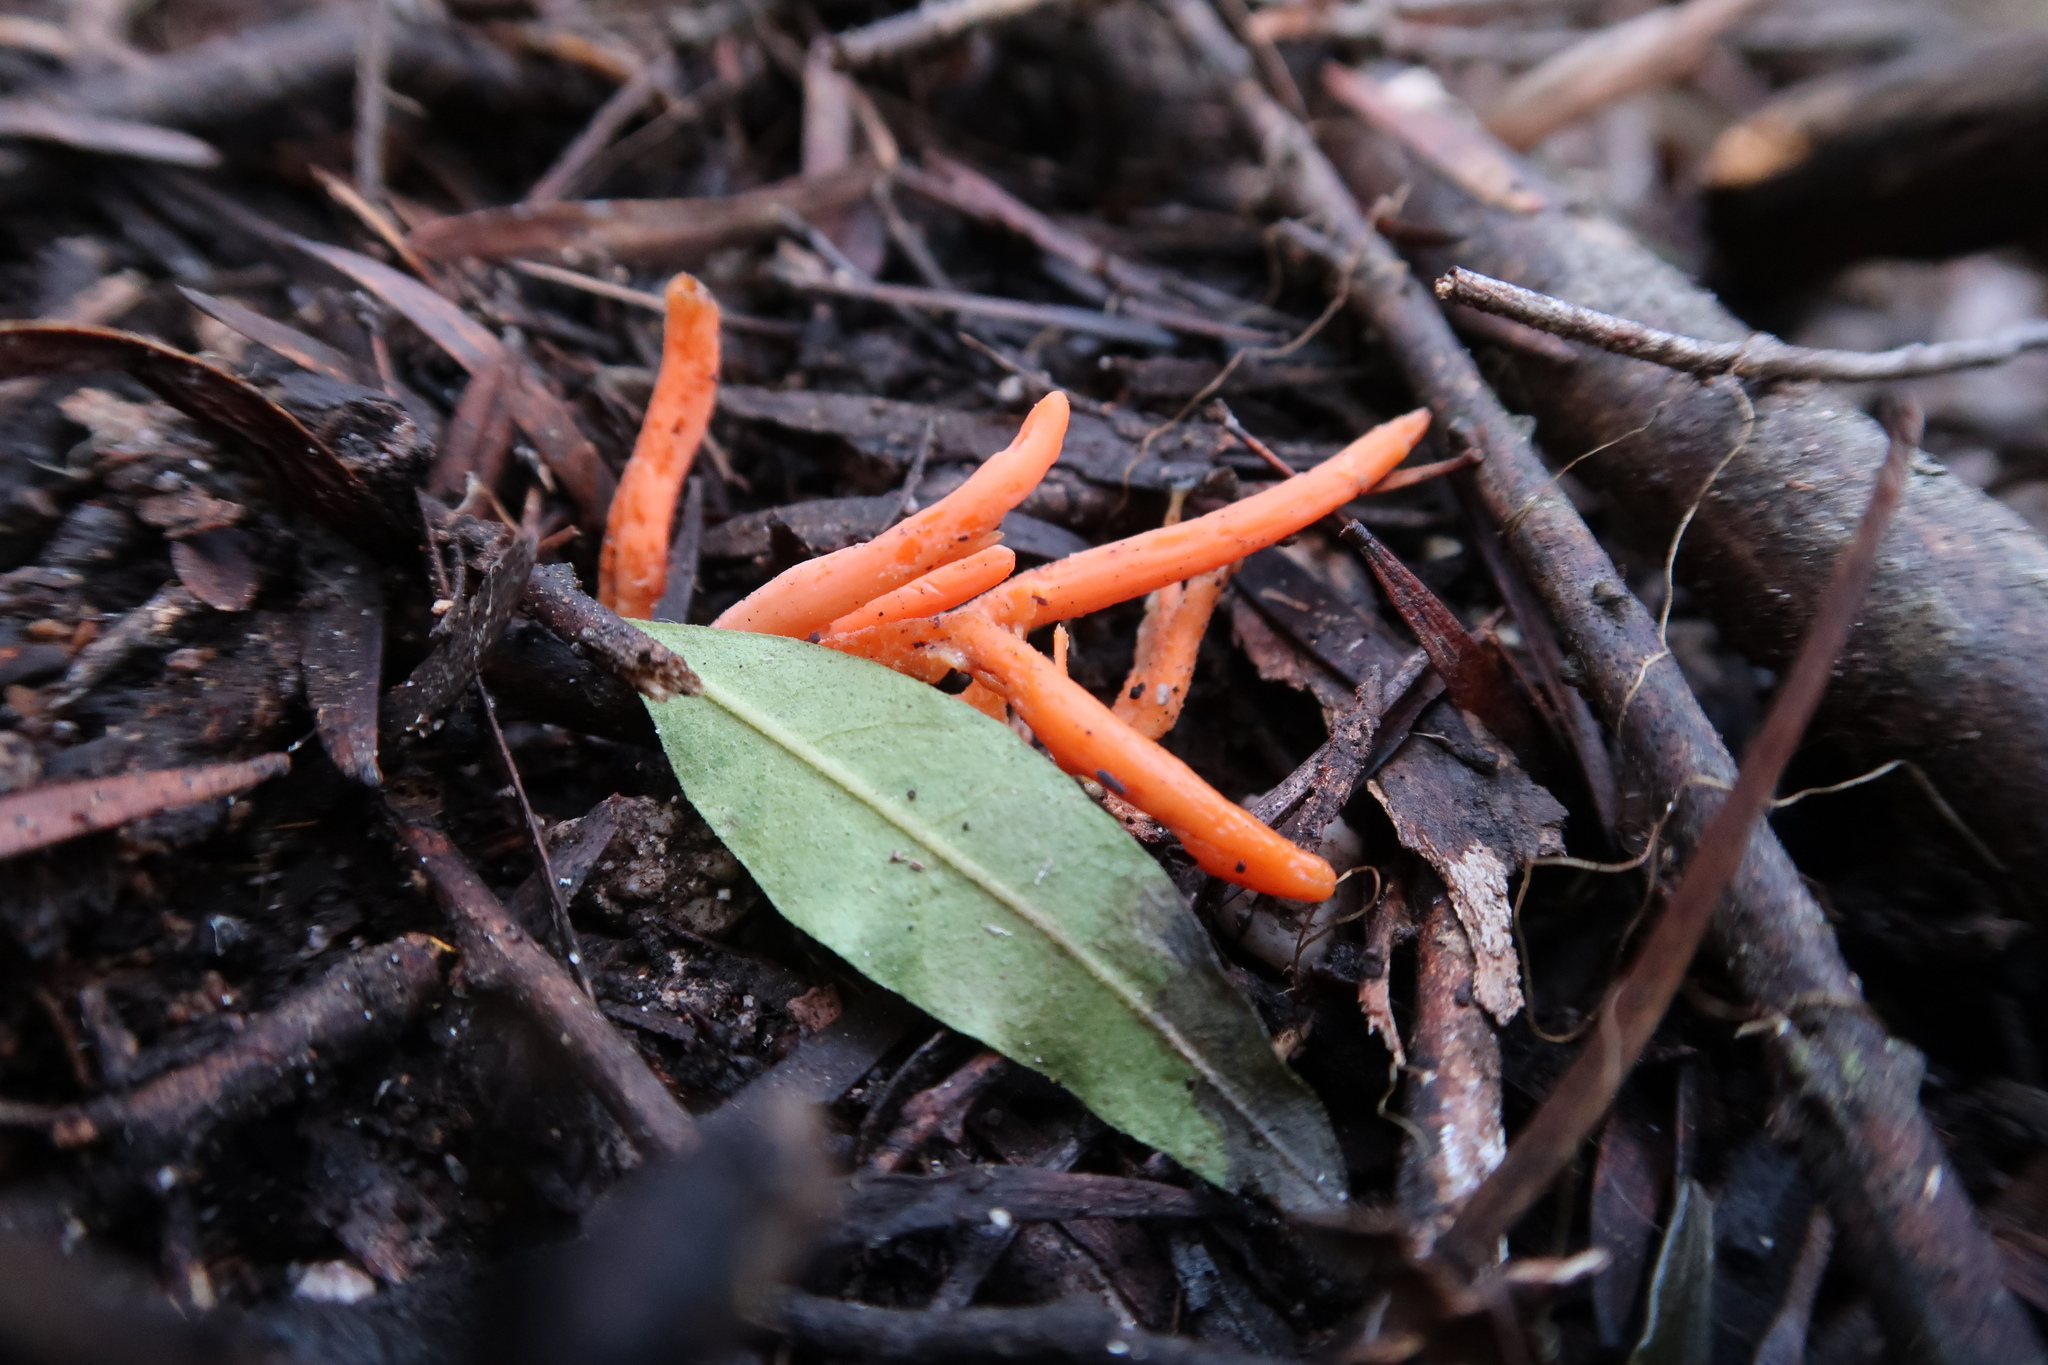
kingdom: Fungi
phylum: Basidiomycota
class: Agaricomycetes
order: Agaricales
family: Clavariaceae
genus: Clavulinopsis
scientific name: Clavulinopsis sulcata
